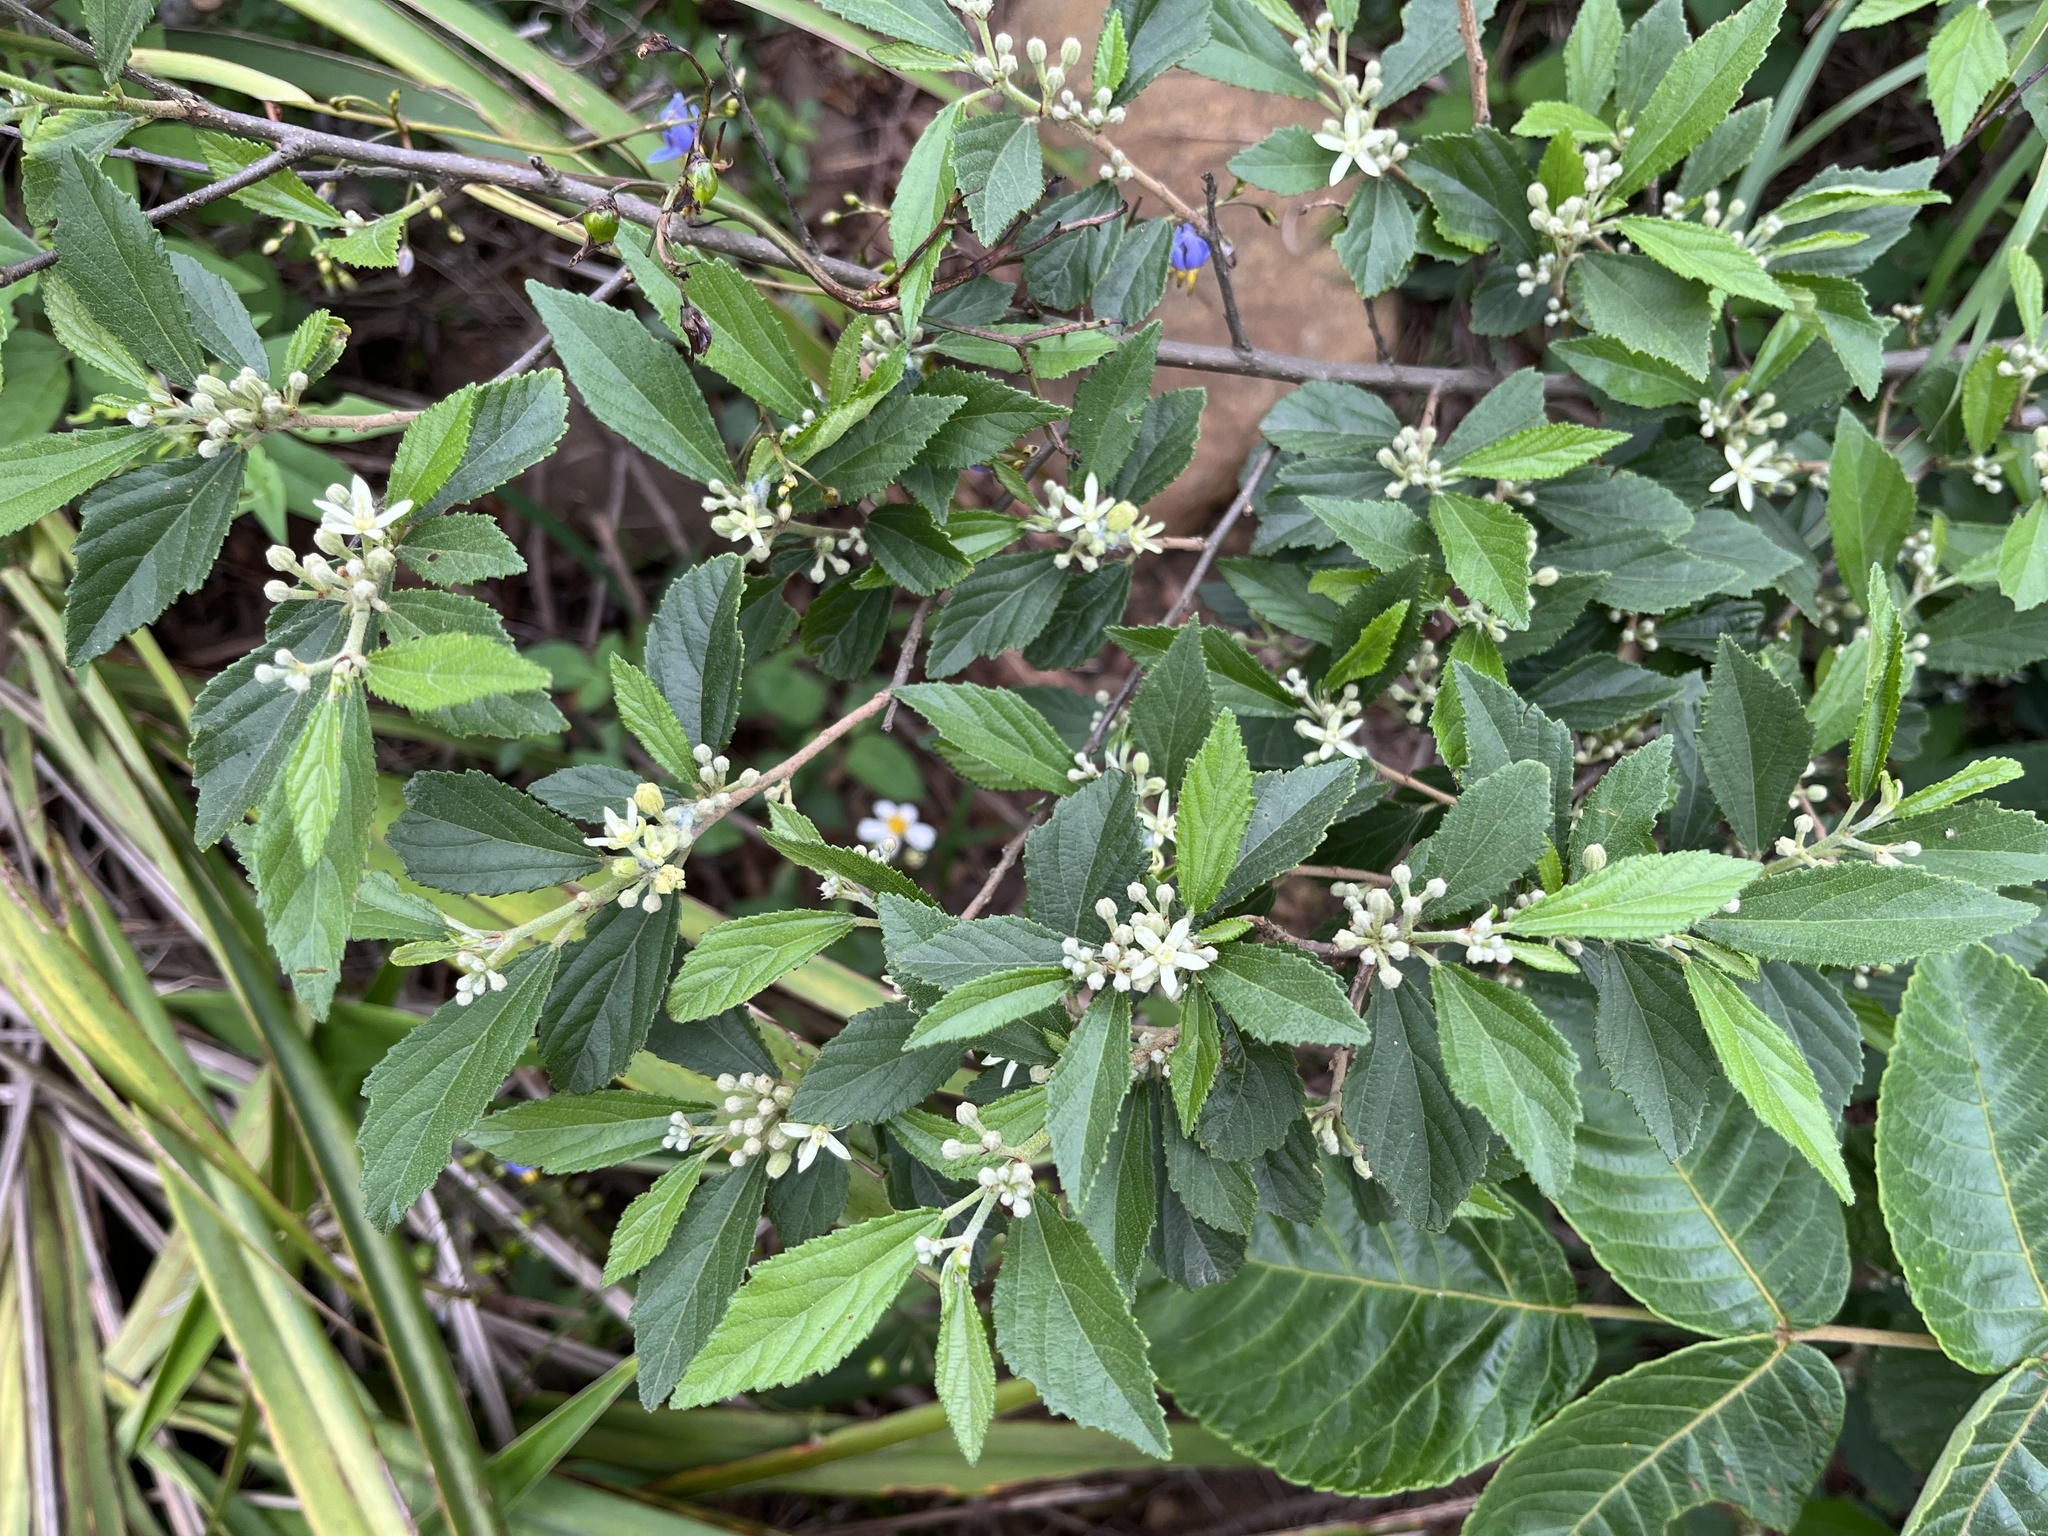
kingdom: Plantae
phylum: Tracheophyta
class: Magnoliopsida
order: Malvales
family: Malvaceae
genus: Grewia
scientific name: Grewia rhombifolia
